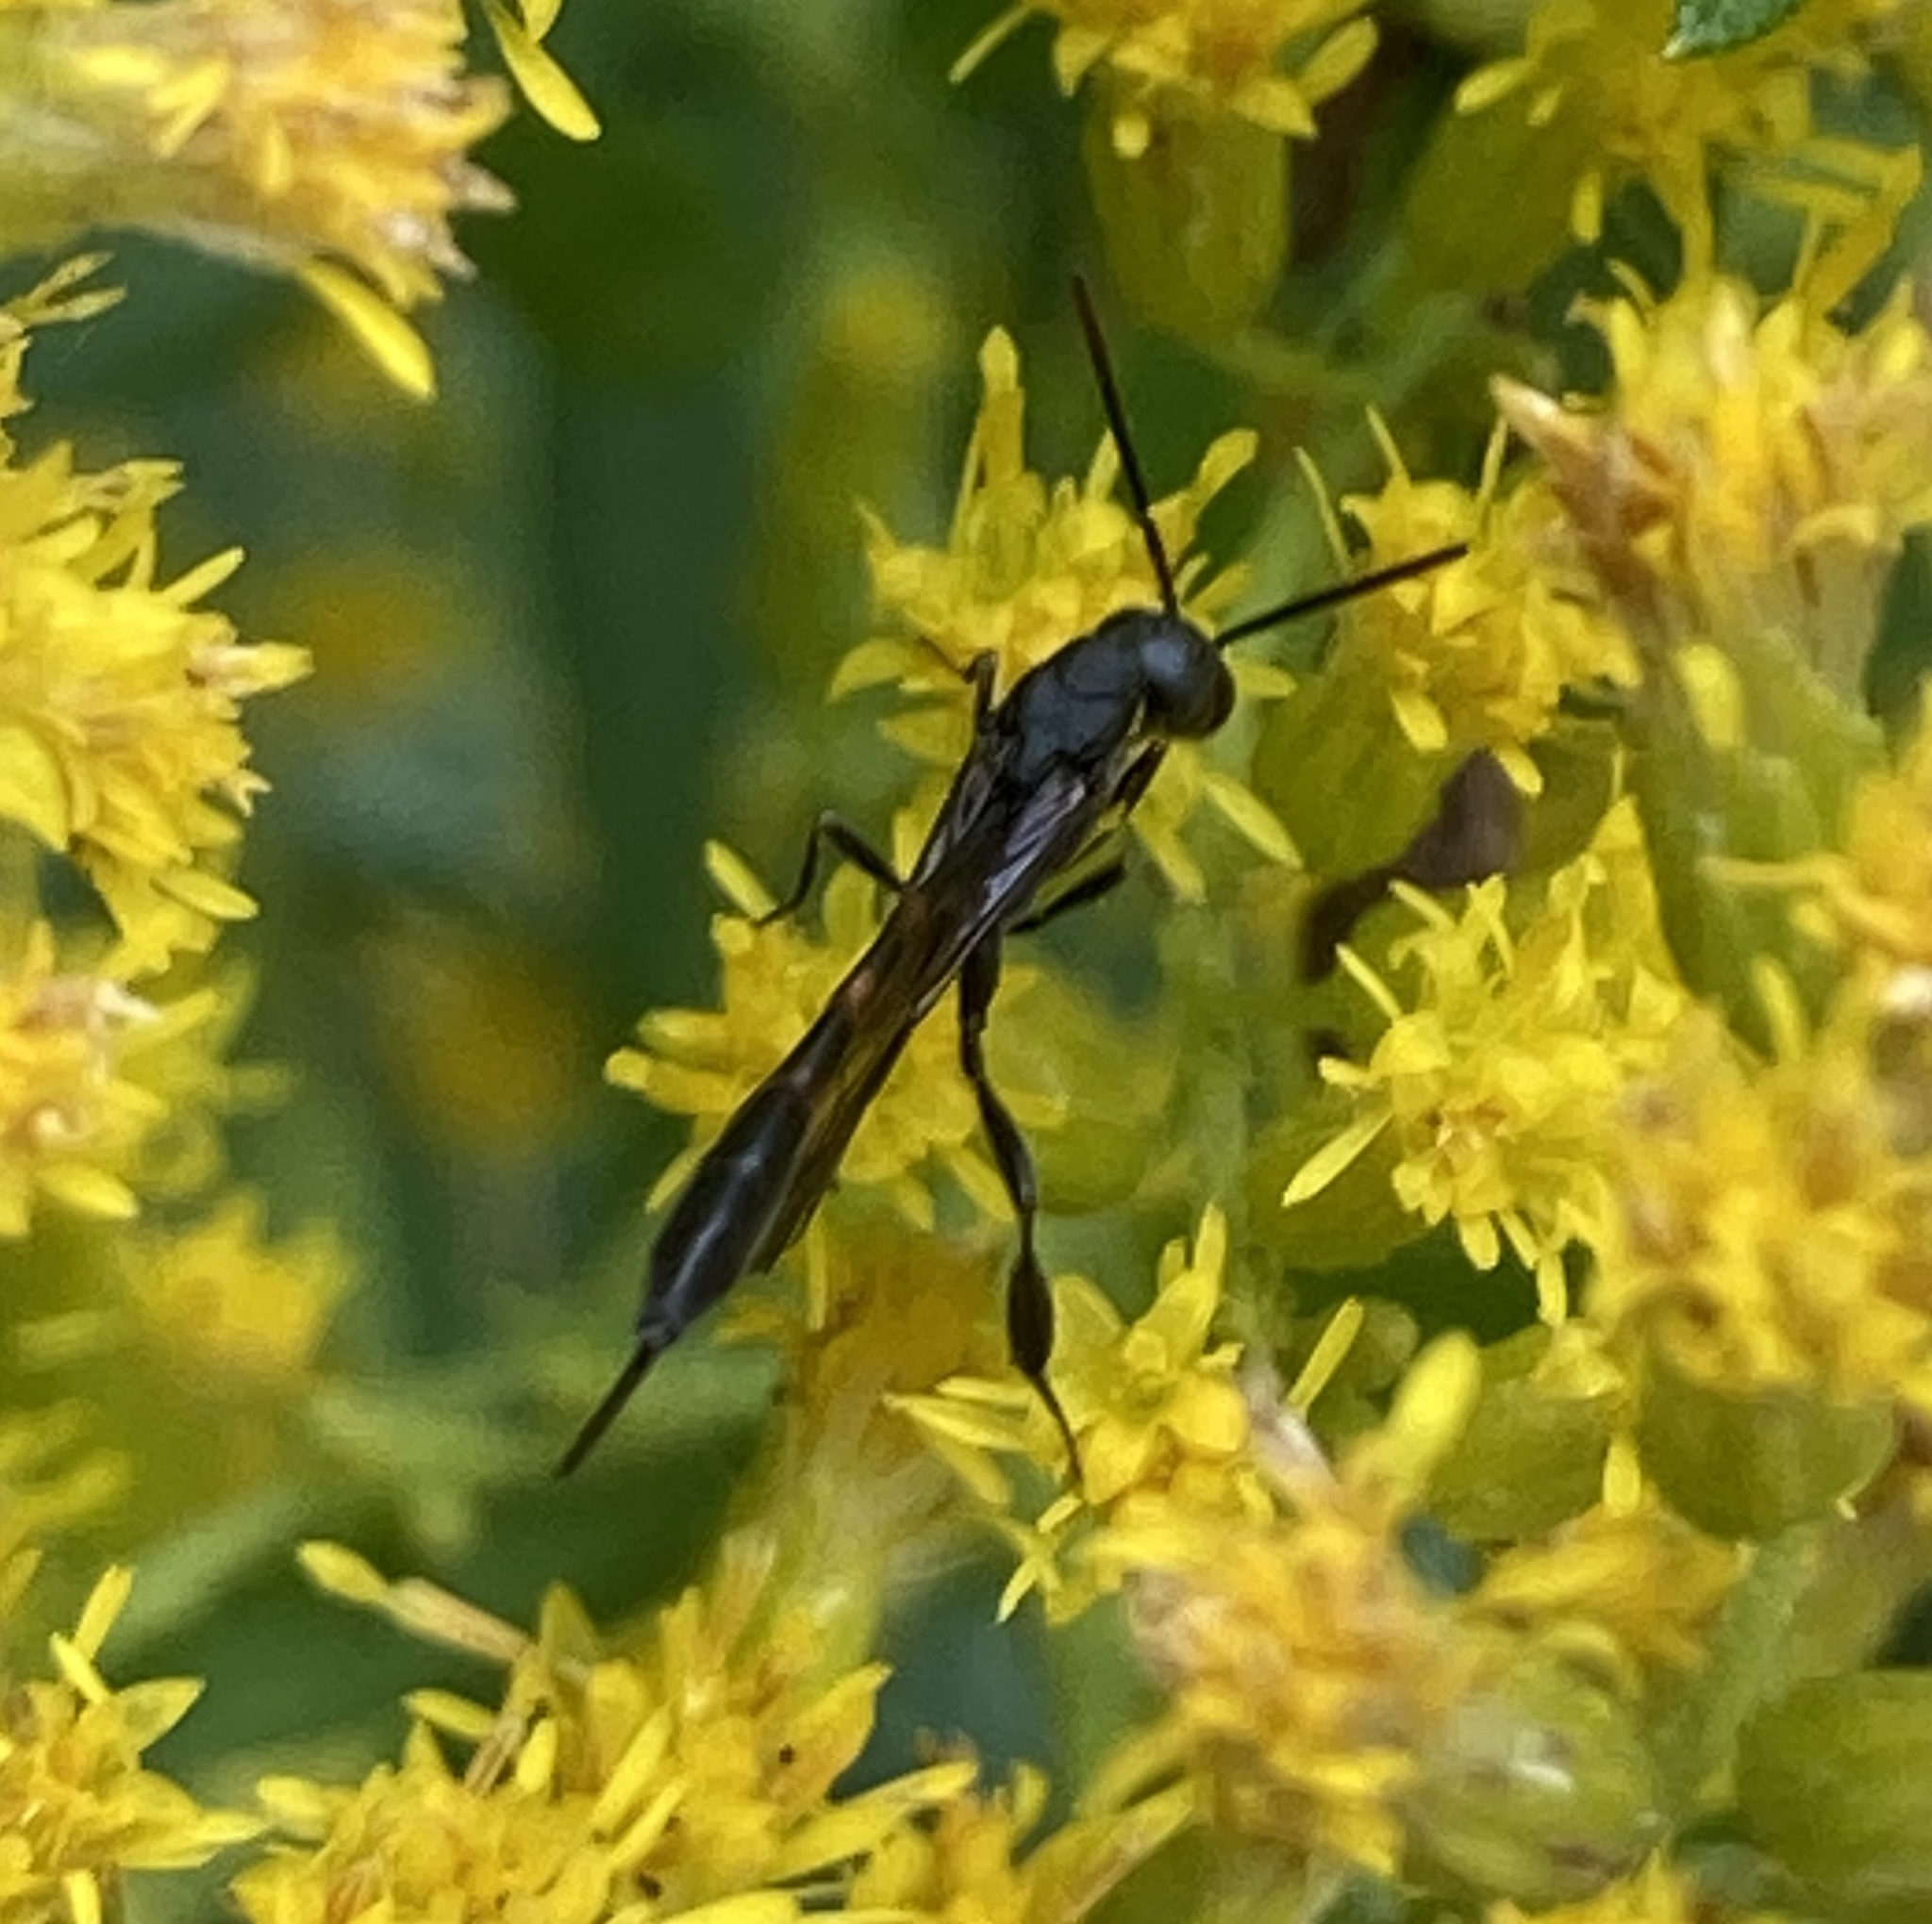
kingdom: Animalia
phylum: Arthropoda
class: Insecta
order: Hymenoptera
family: Gasteruptiidae
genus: Gasteruption
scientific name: Gasteruption
